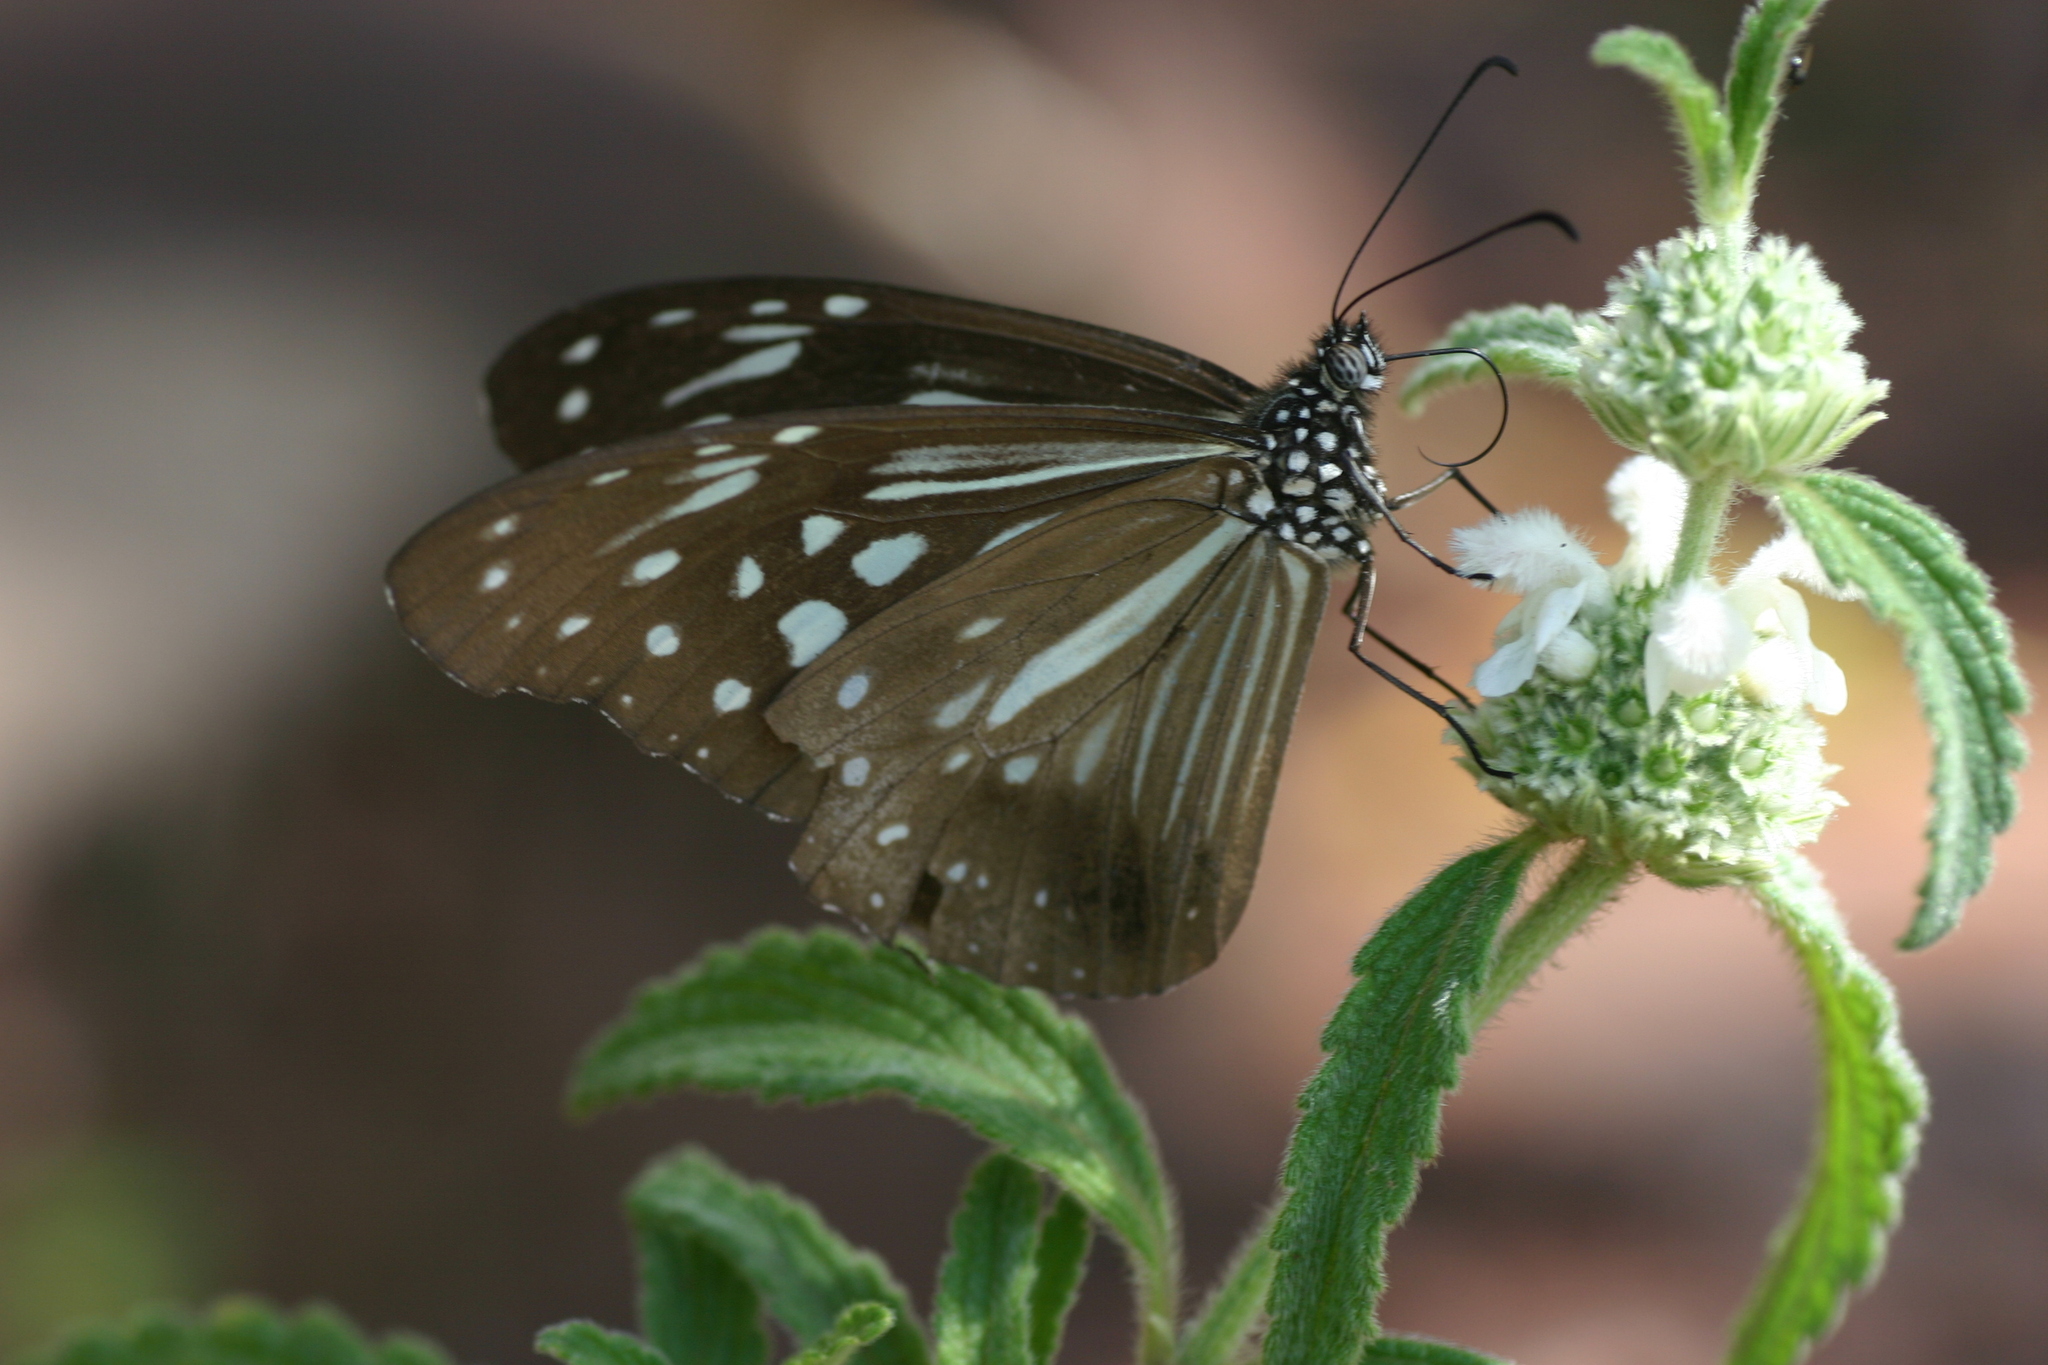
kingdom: Animalia
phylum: Arthropoda
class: Insecta
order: Lepidoptera
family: Nymphalidae
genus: Parantica
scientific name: Parantica nilgiriensis
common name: Nilgiri tiger
